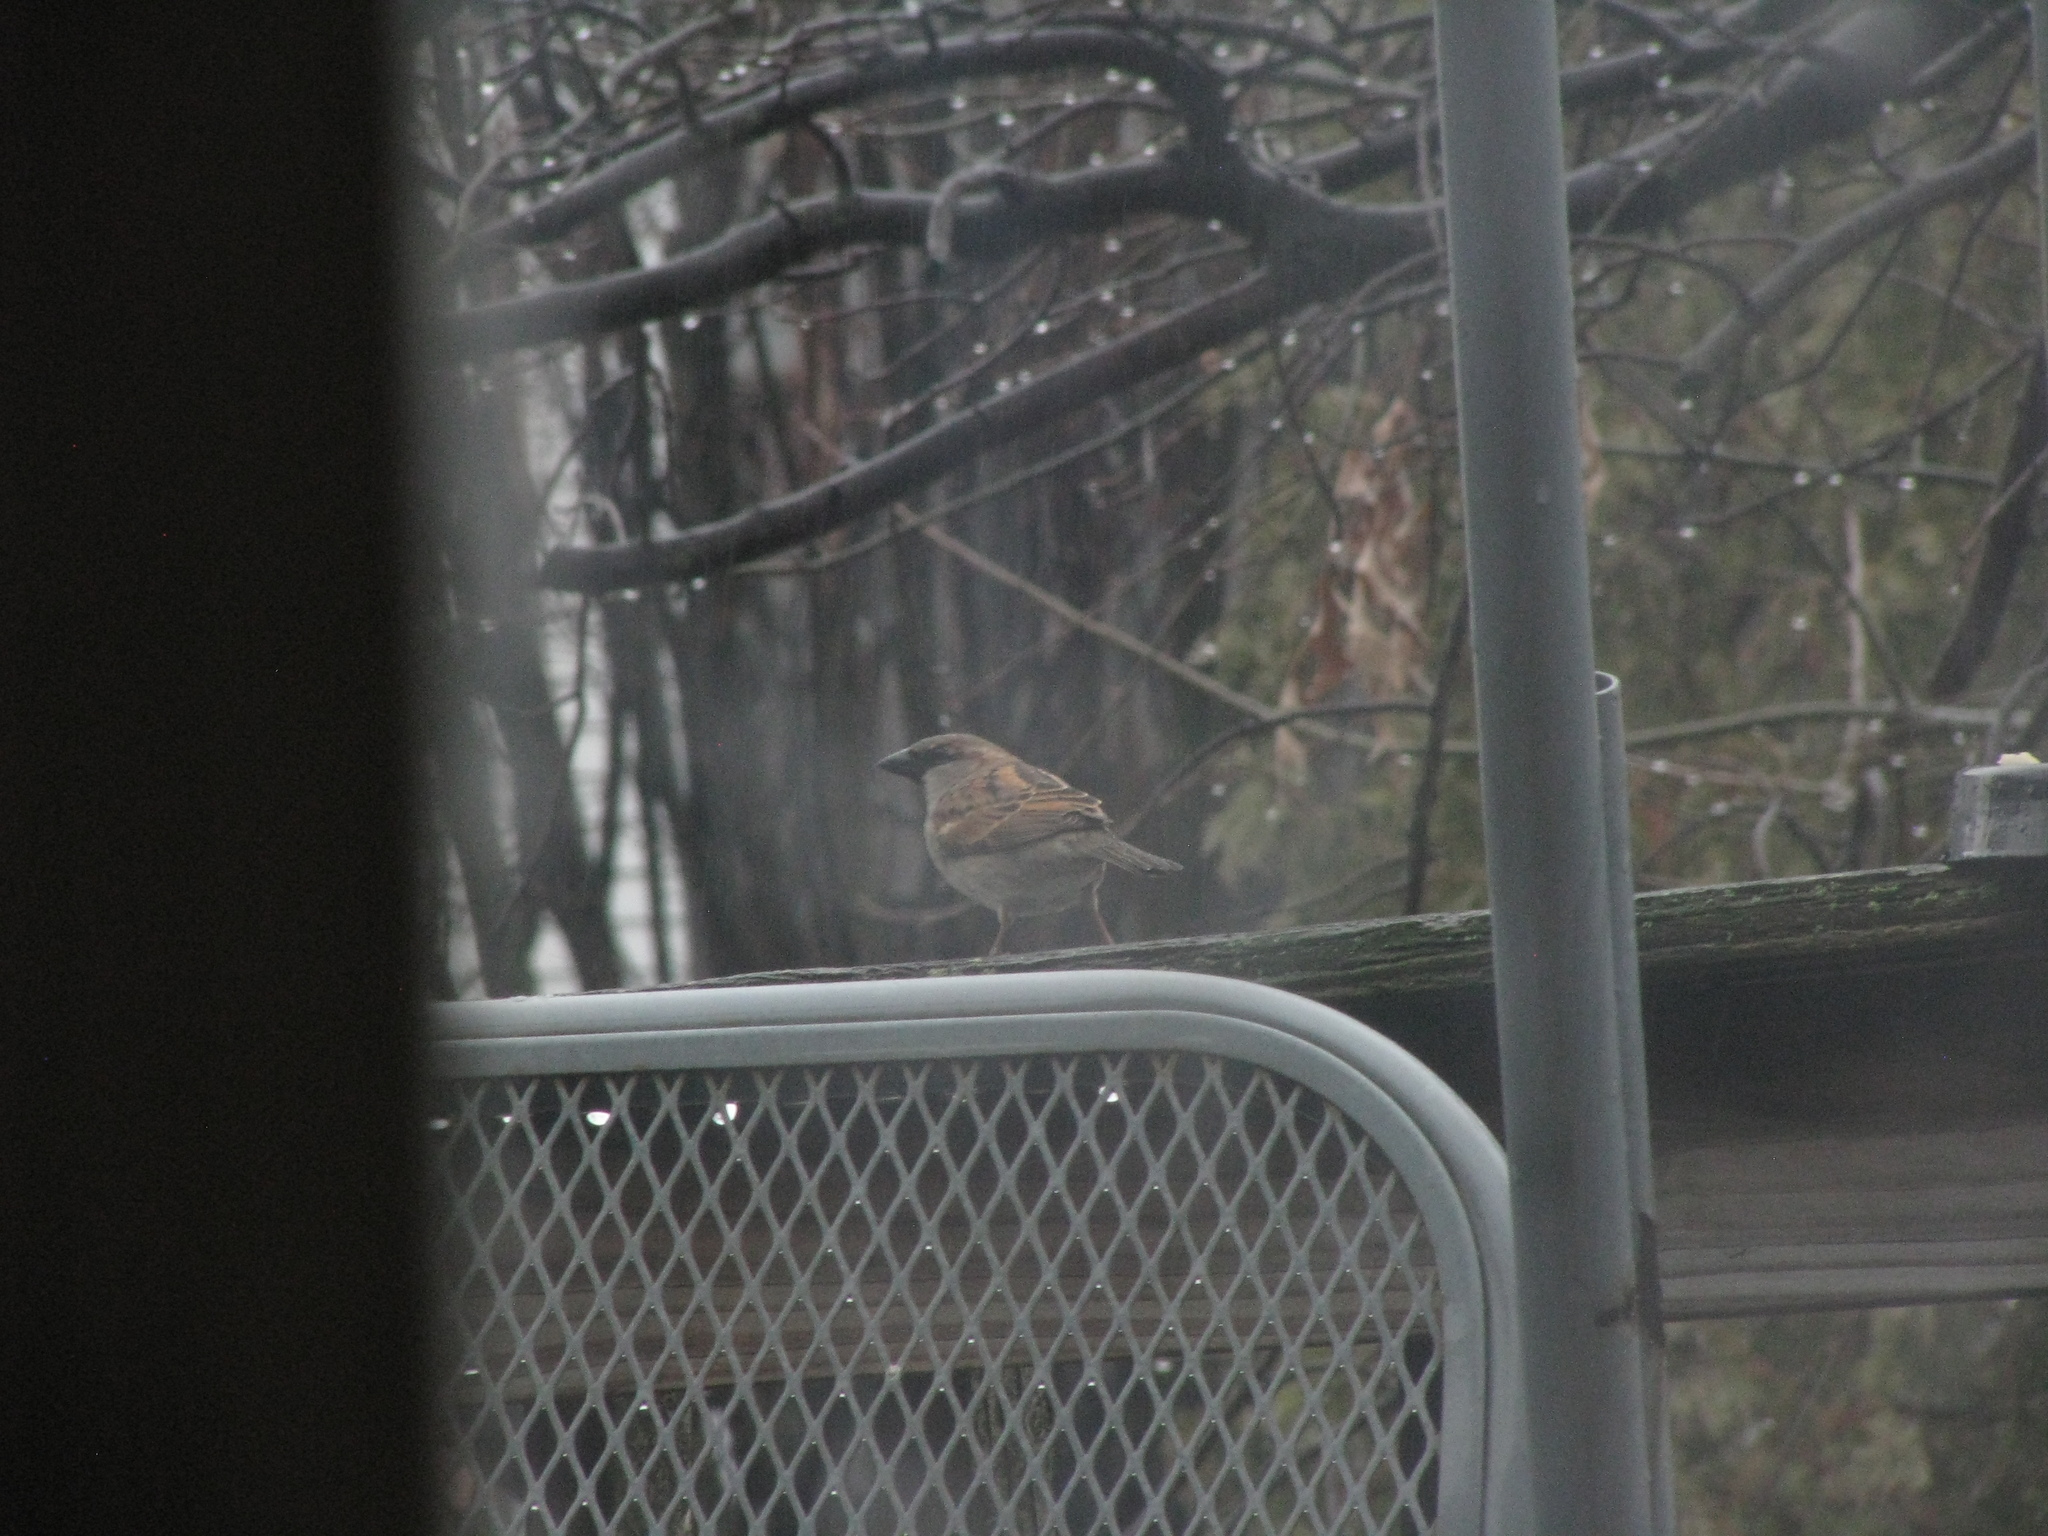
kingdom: Animalia
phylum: Chordata
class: Aves
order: Passeriformes
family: Passeridae
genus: Passer
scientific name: Passer domesticus
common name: House sparrow
